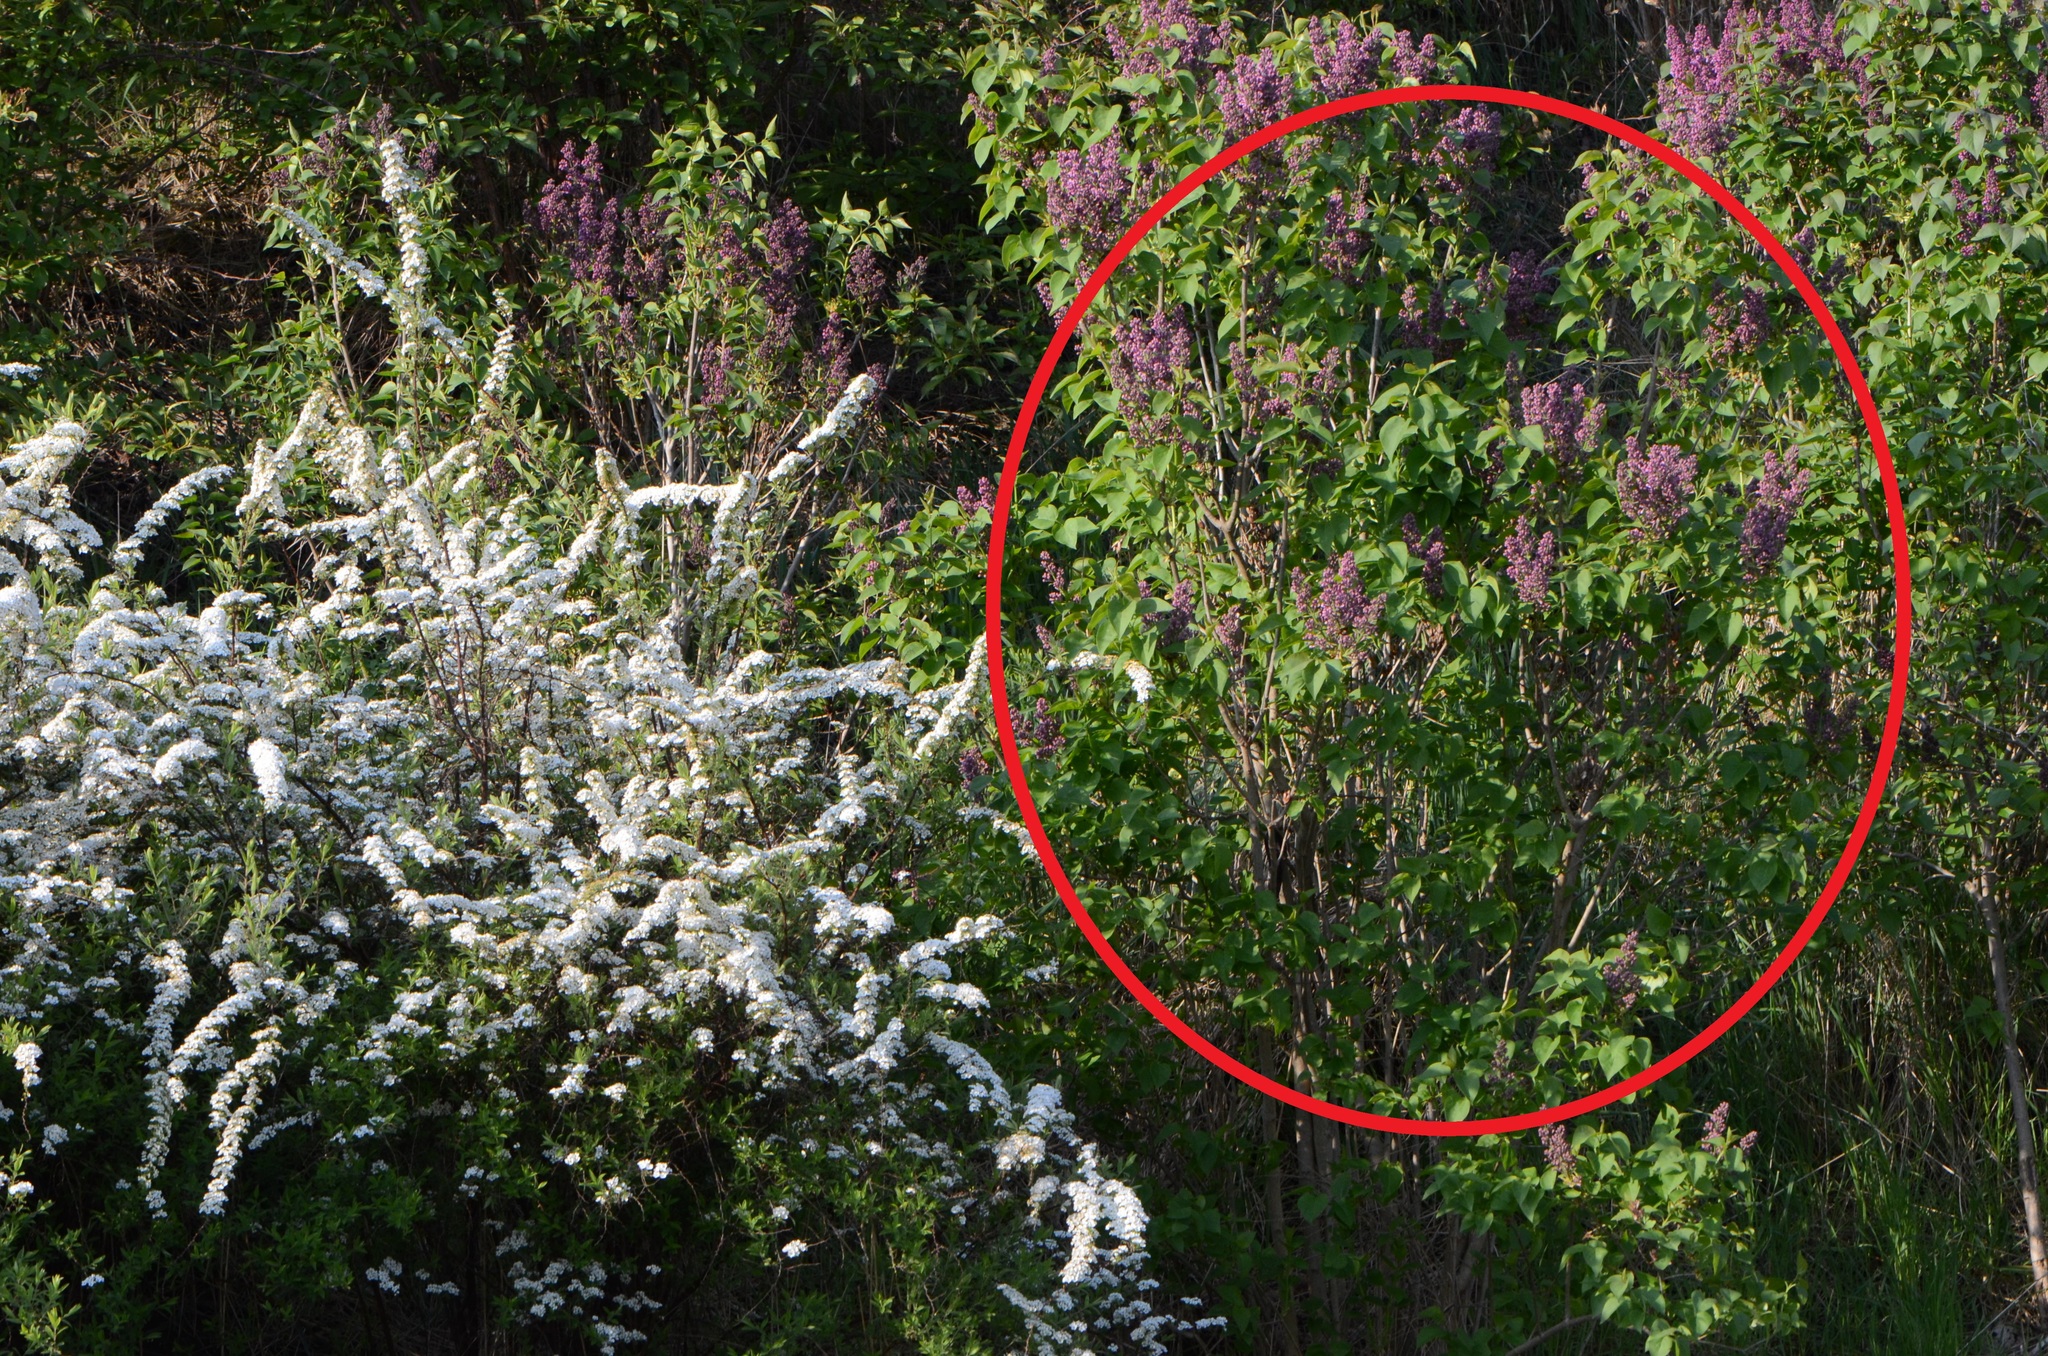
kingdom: Plantae
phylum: Tracheophyta
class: Magnoliopsida
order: Lamiales
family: Oleaceae
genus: Syringa
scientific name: Syringa vulgaris
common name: Common lilac
